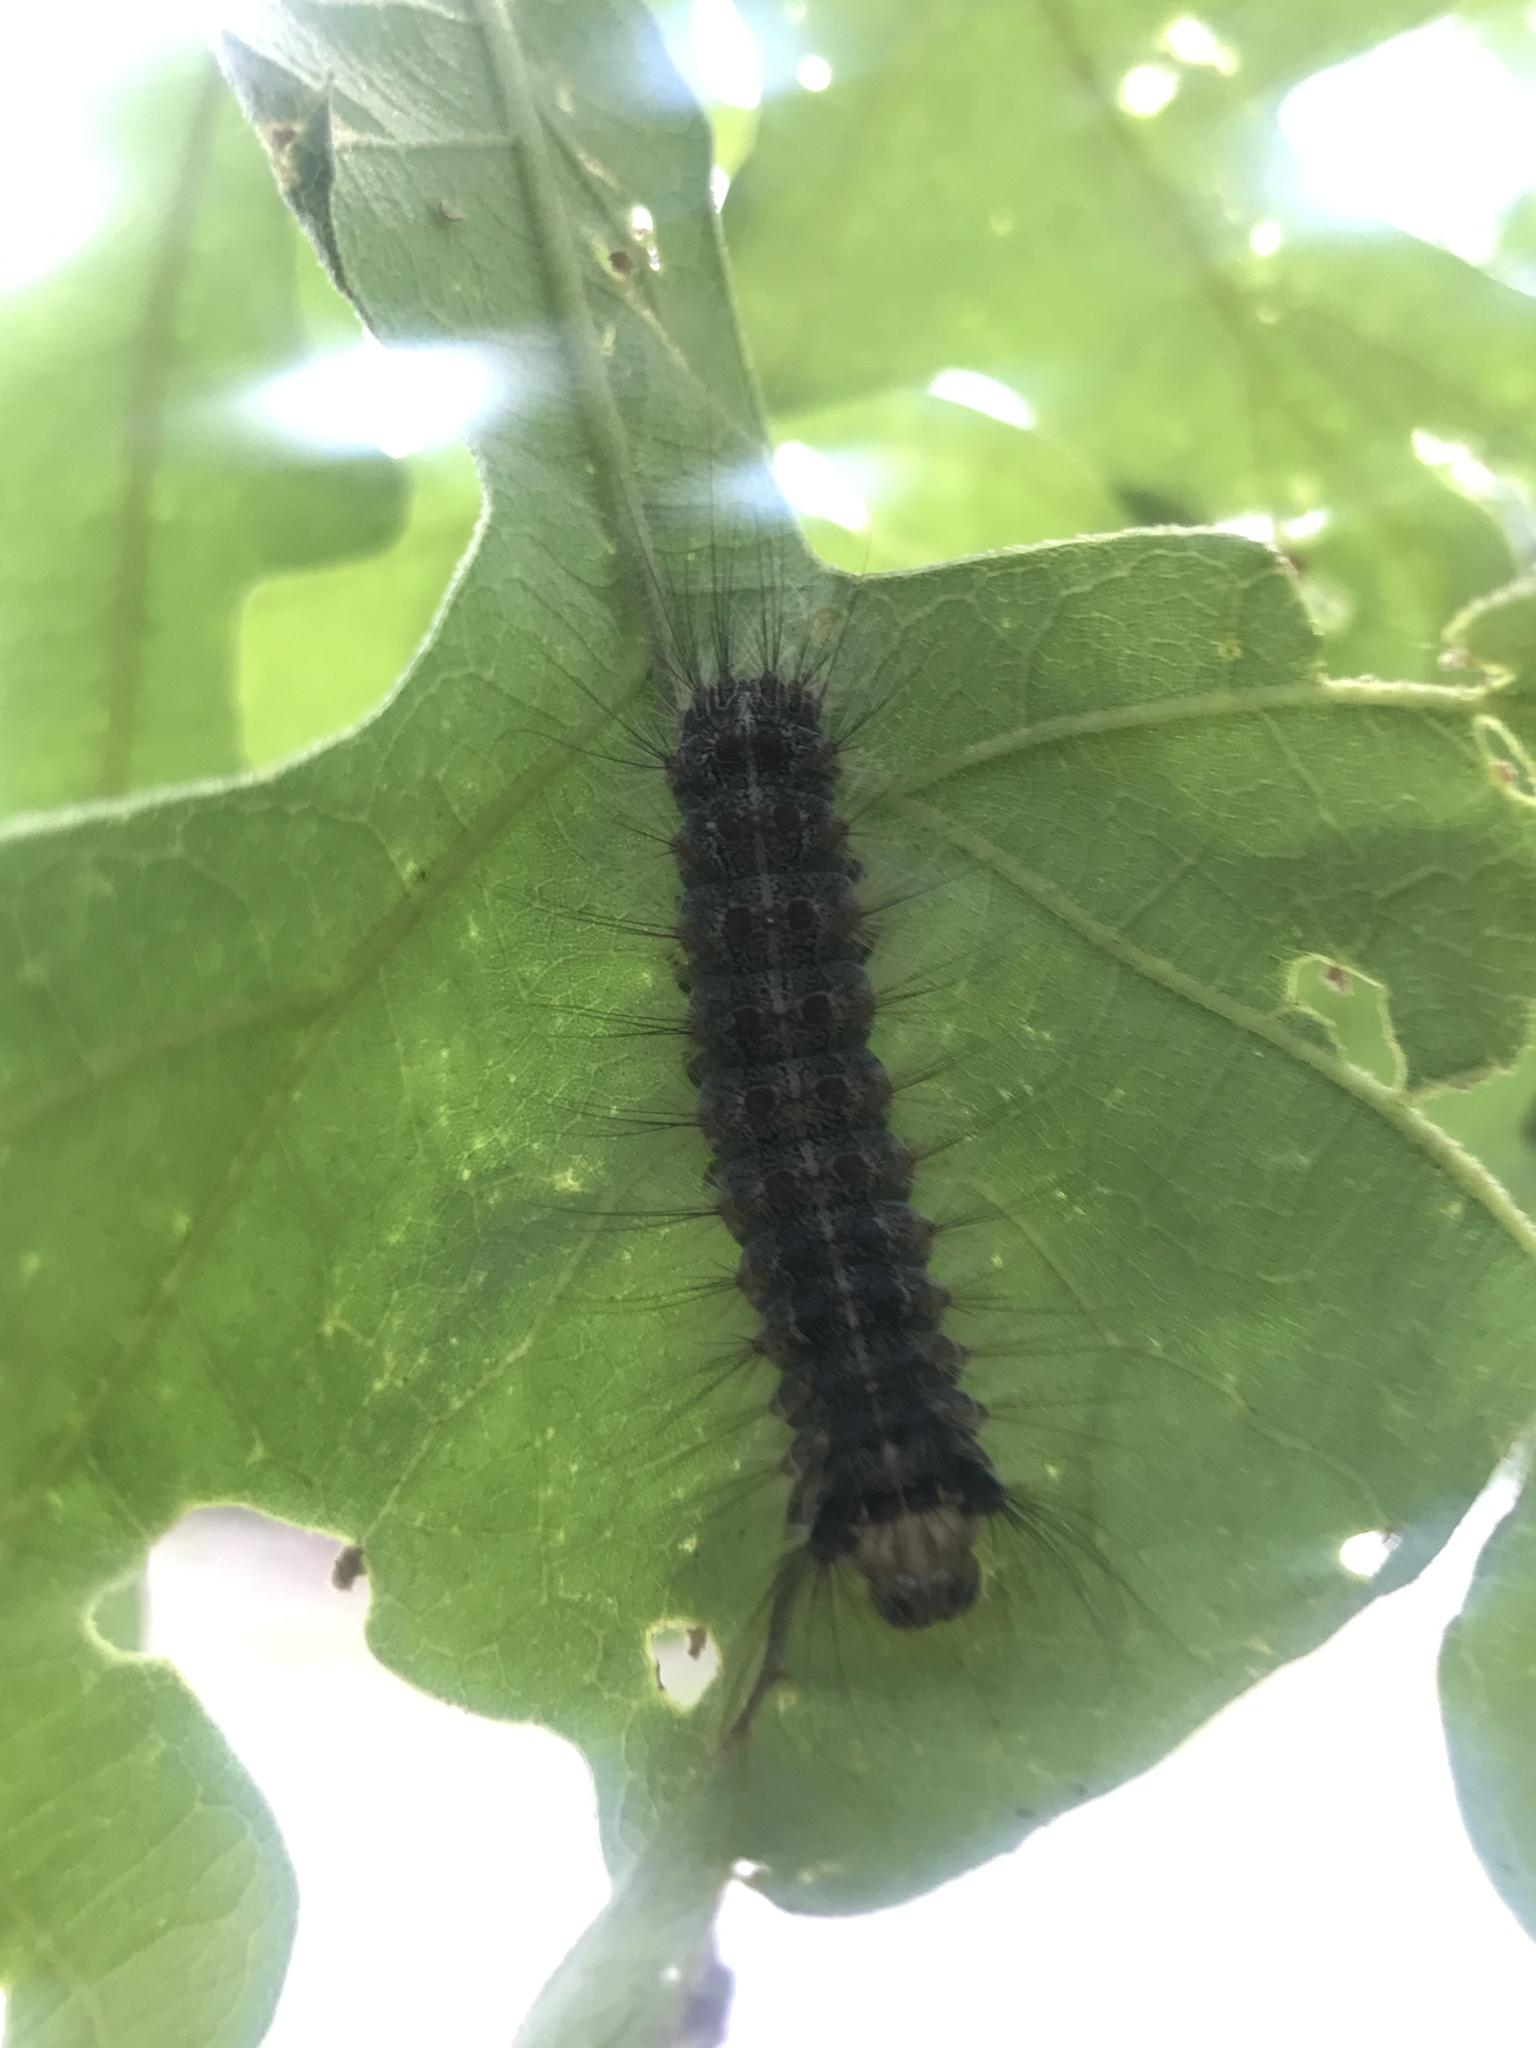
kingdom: Animalia
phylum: Arthropoda
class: Insecta
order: Lepidoptera
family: Erebidae
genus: Lymantria
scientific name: Lymantria dispar
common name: Gypsy moth
